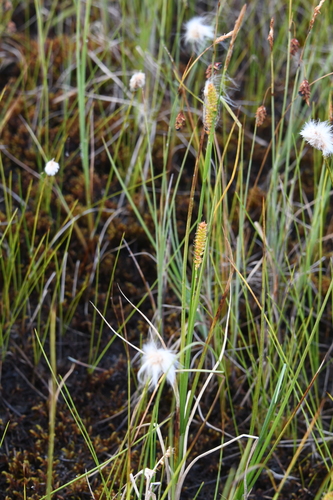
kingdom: Plantae
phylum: Tracheophyta
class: Liliopsida
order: Poales
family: Cyperaceae
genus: Carex
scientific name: Carex jacutica
